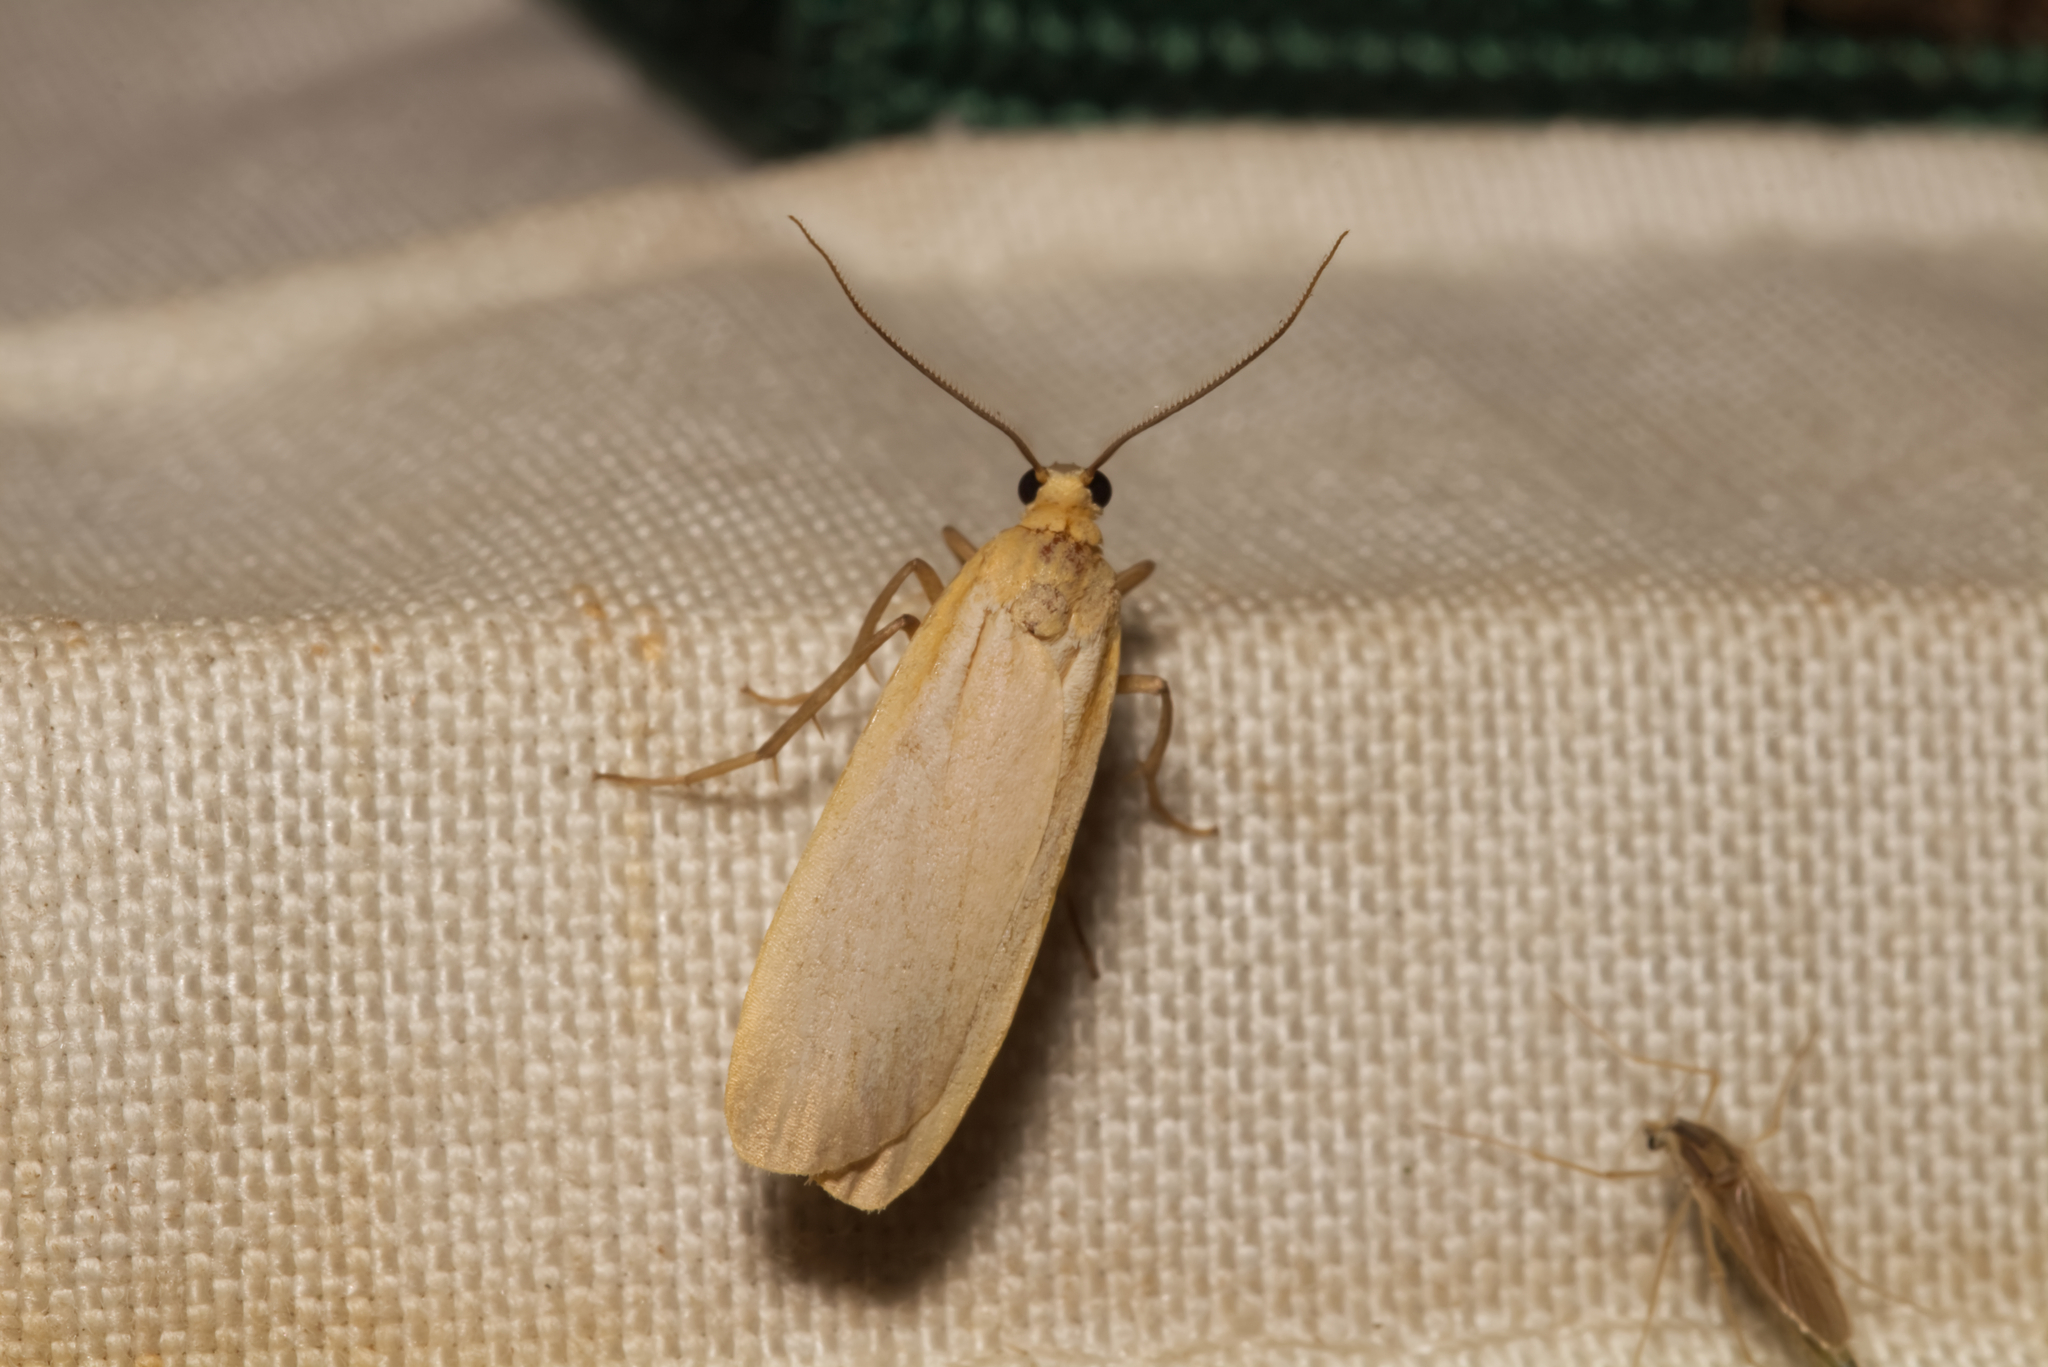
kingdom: Animalia
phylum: Arthropoda
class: Insecta
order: Lepidoptera
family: Erebidae
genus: Katha
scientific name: Katha depressa
